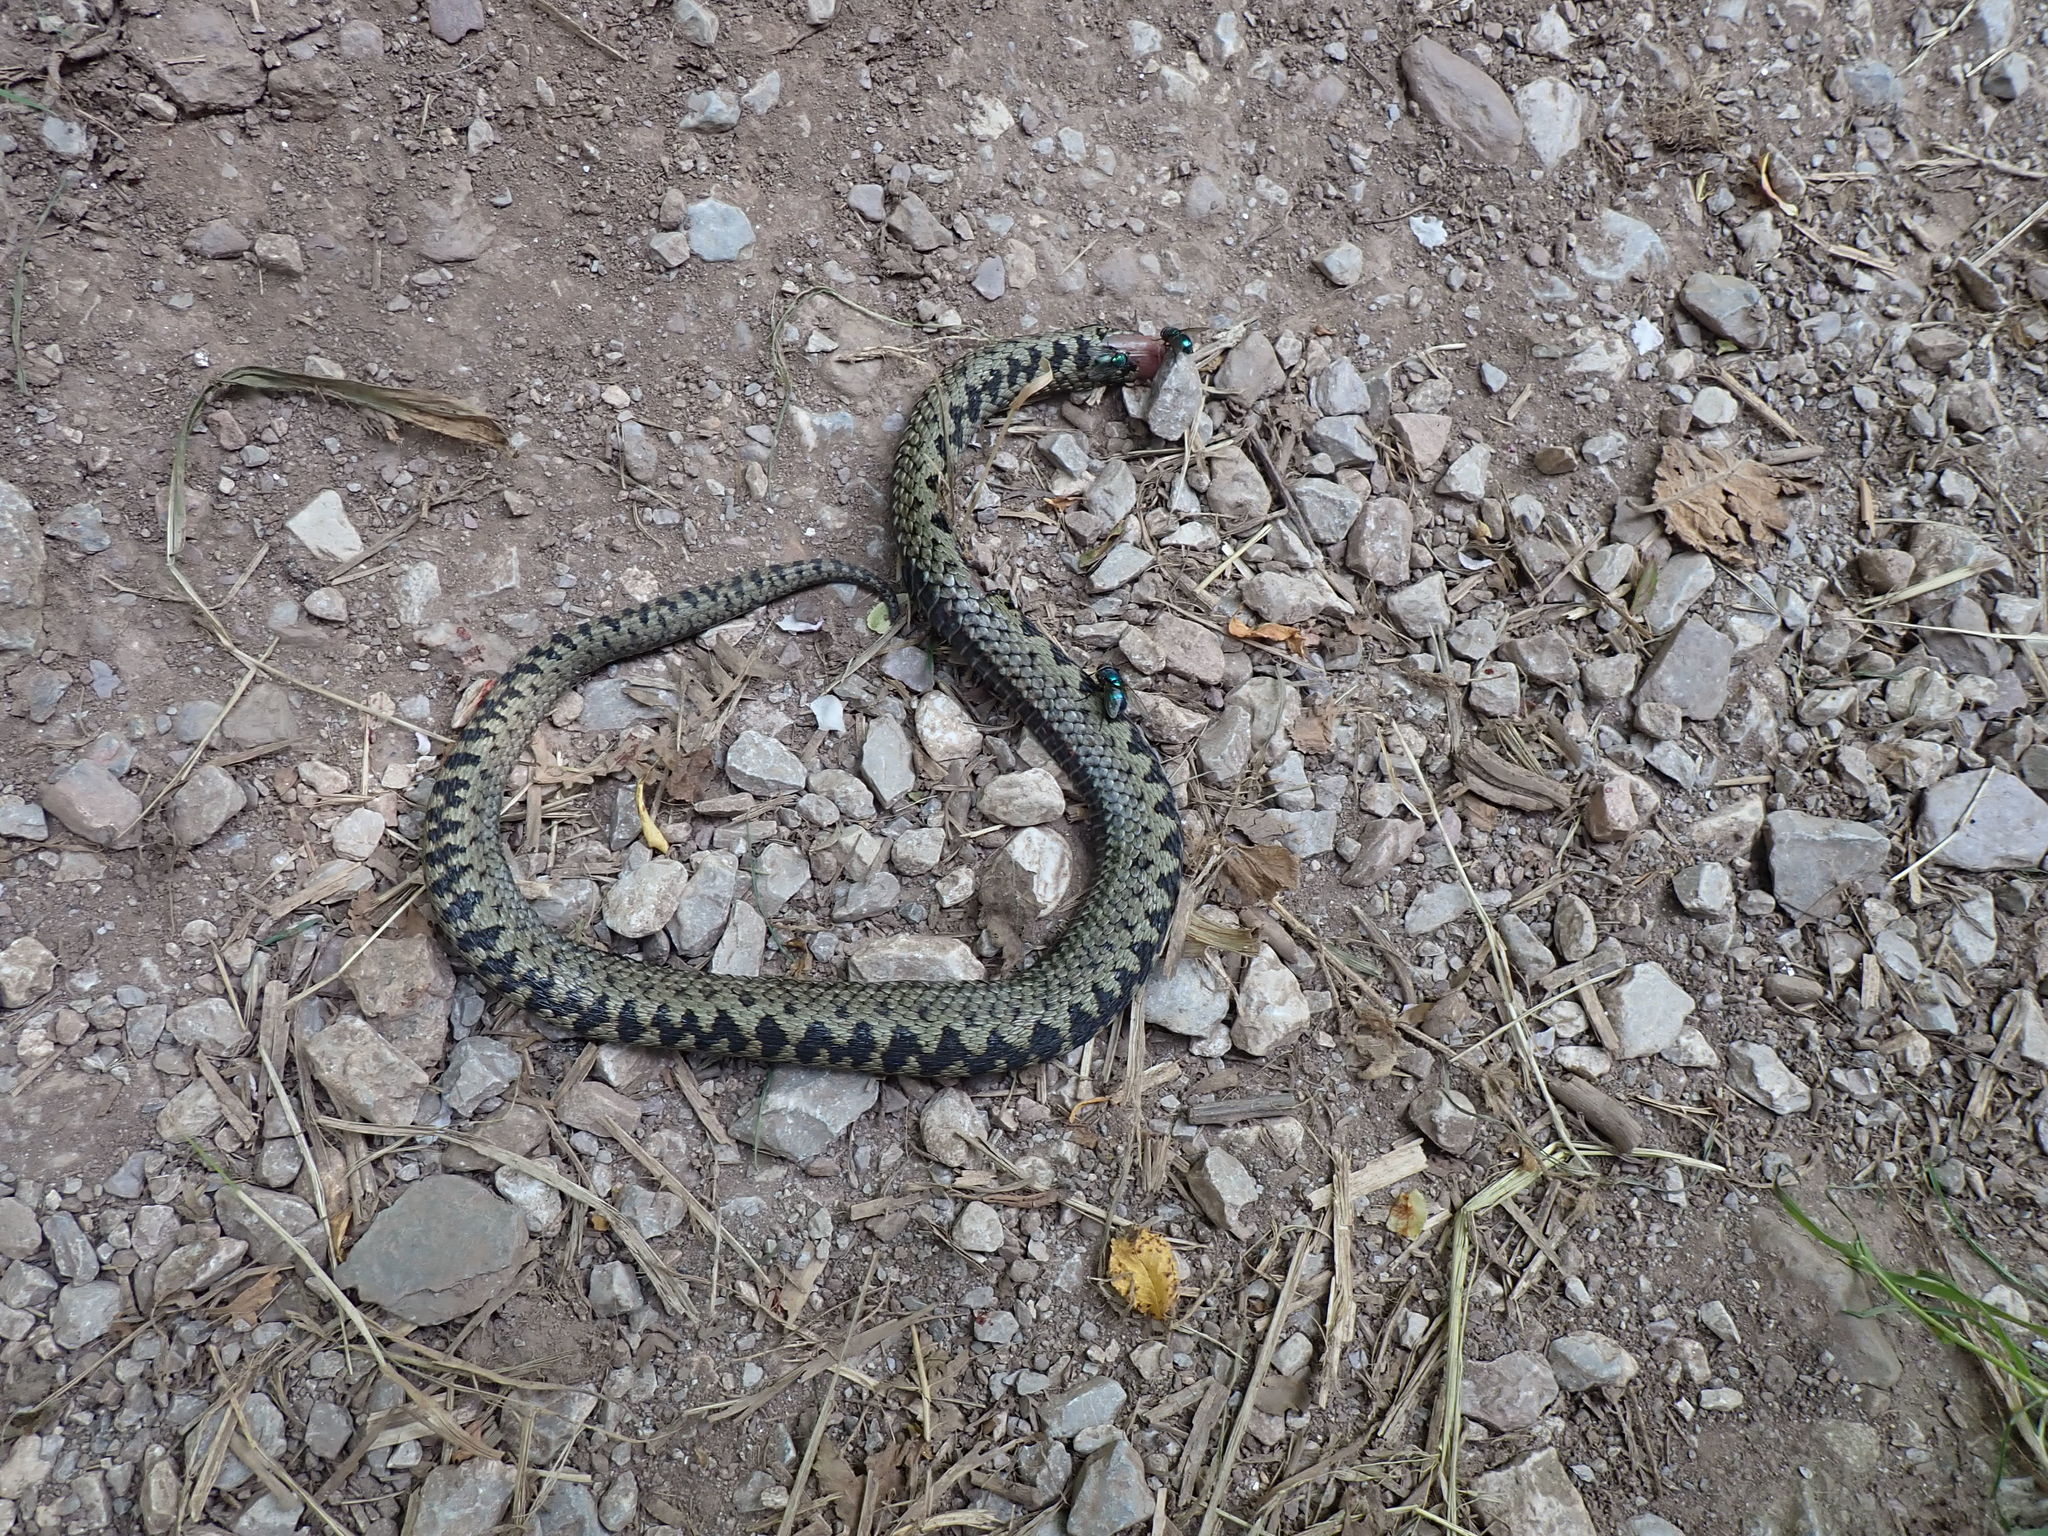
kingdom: Animalia
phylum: Chordata
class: Squamata
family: Viperidae
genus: Vipera
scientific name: Vipera berus
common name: Adder
